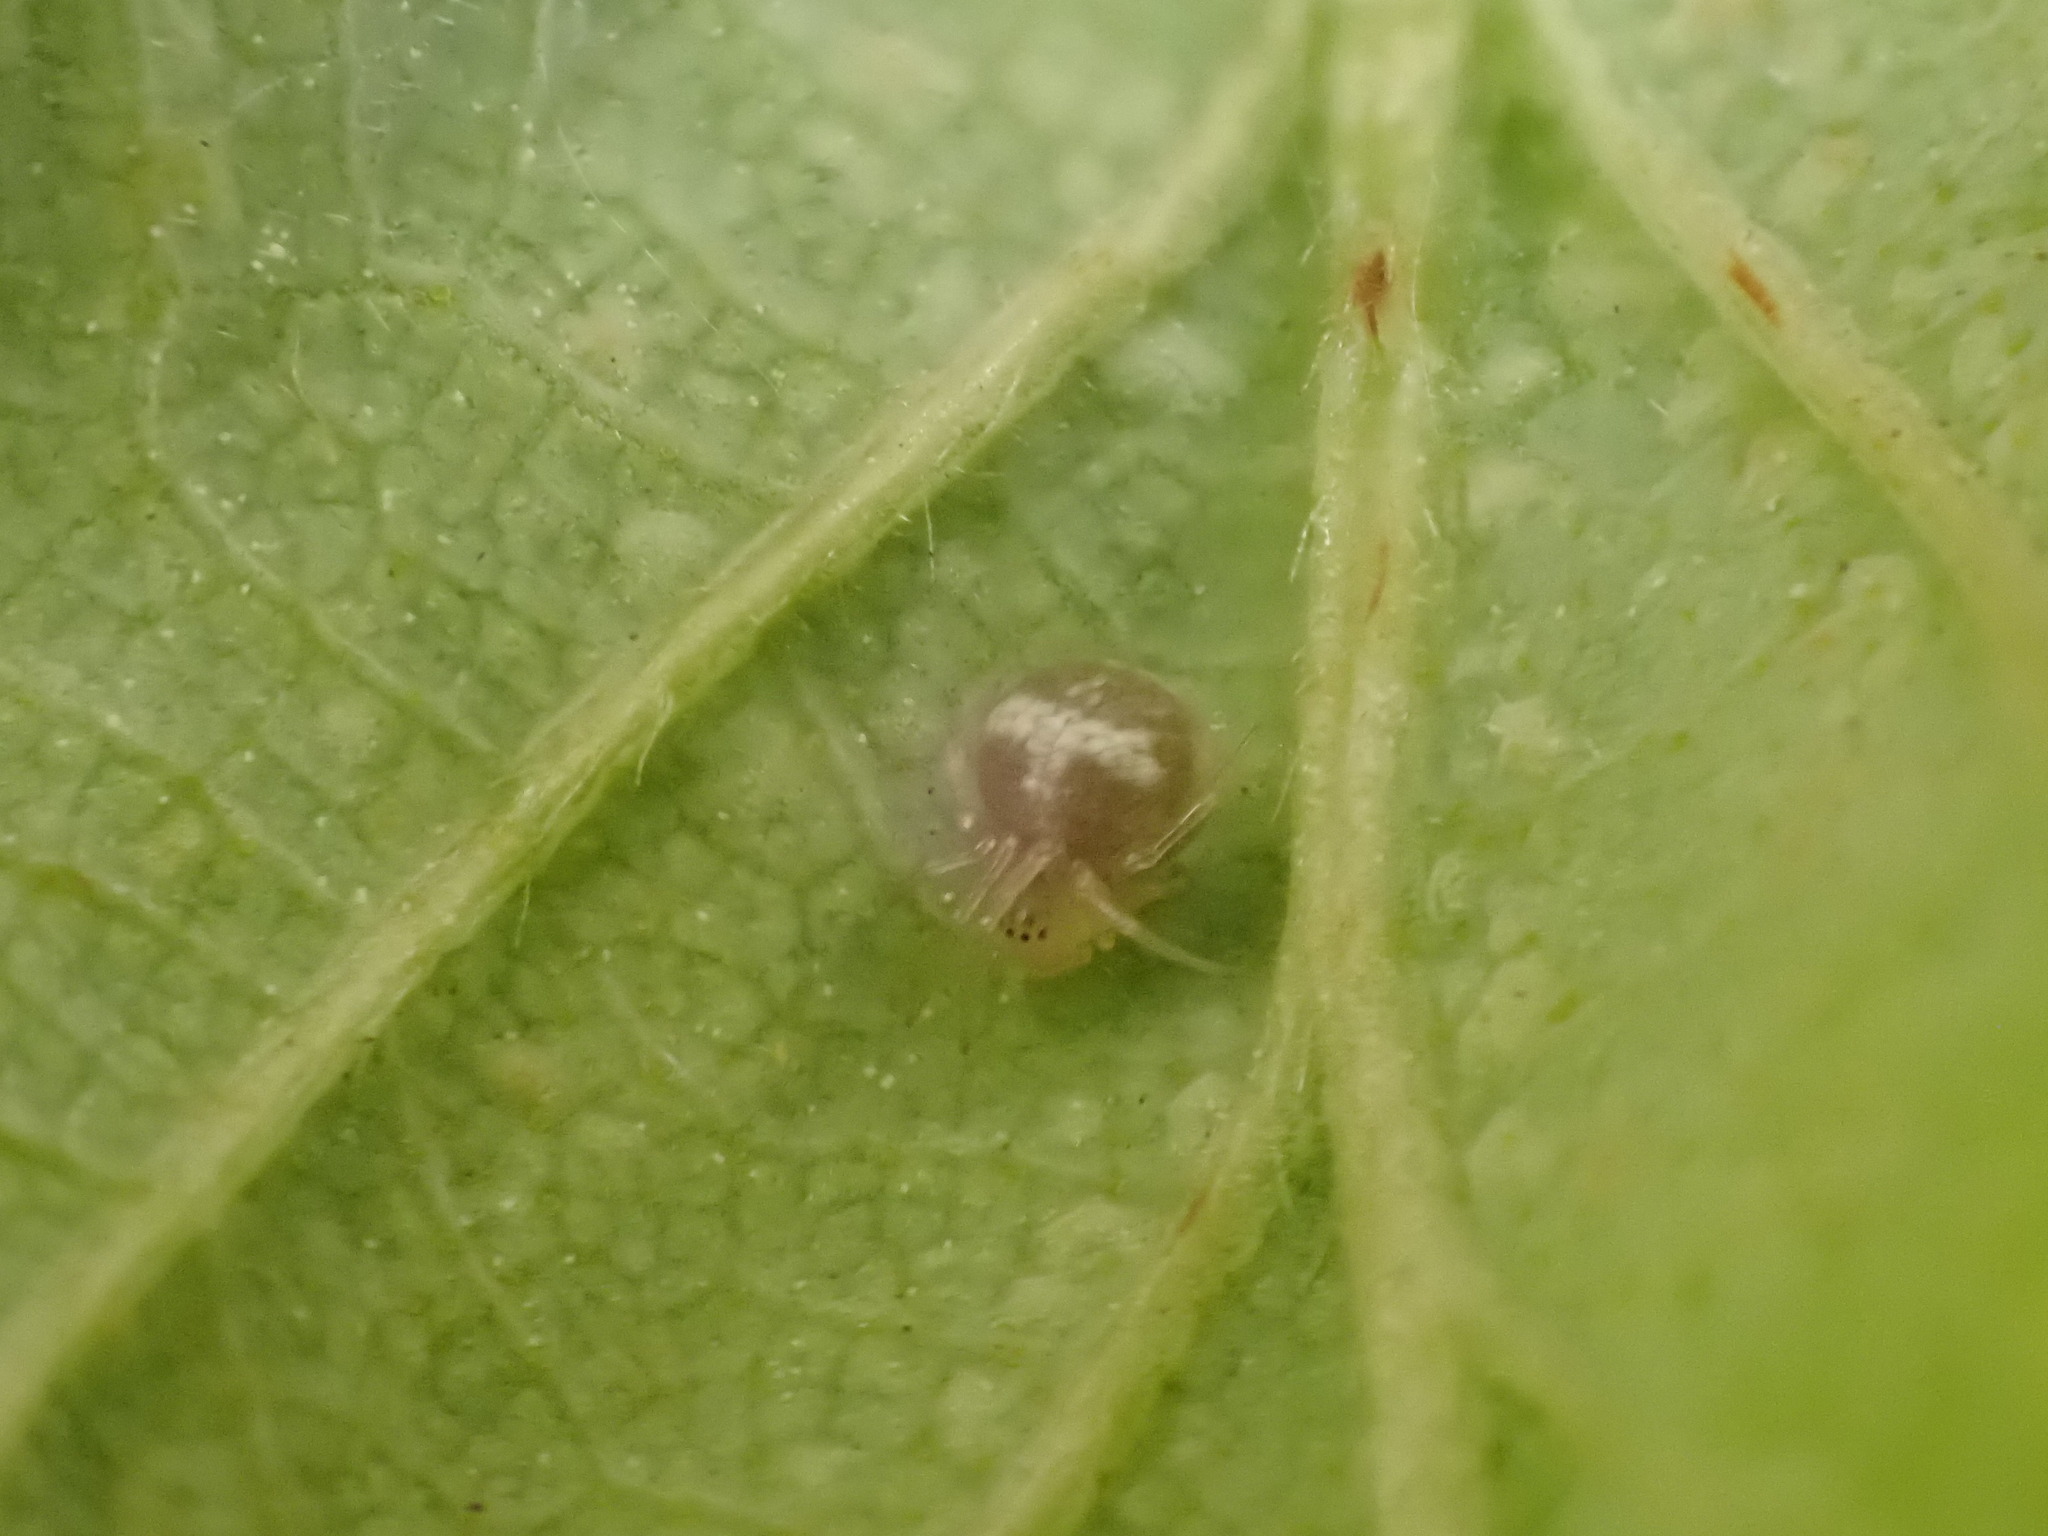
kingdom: Animalia
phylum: Arthropoda
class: Arachnida
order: Araneae
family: Theridiidae
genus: Paidiscura
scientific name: Paidiscura pallens
